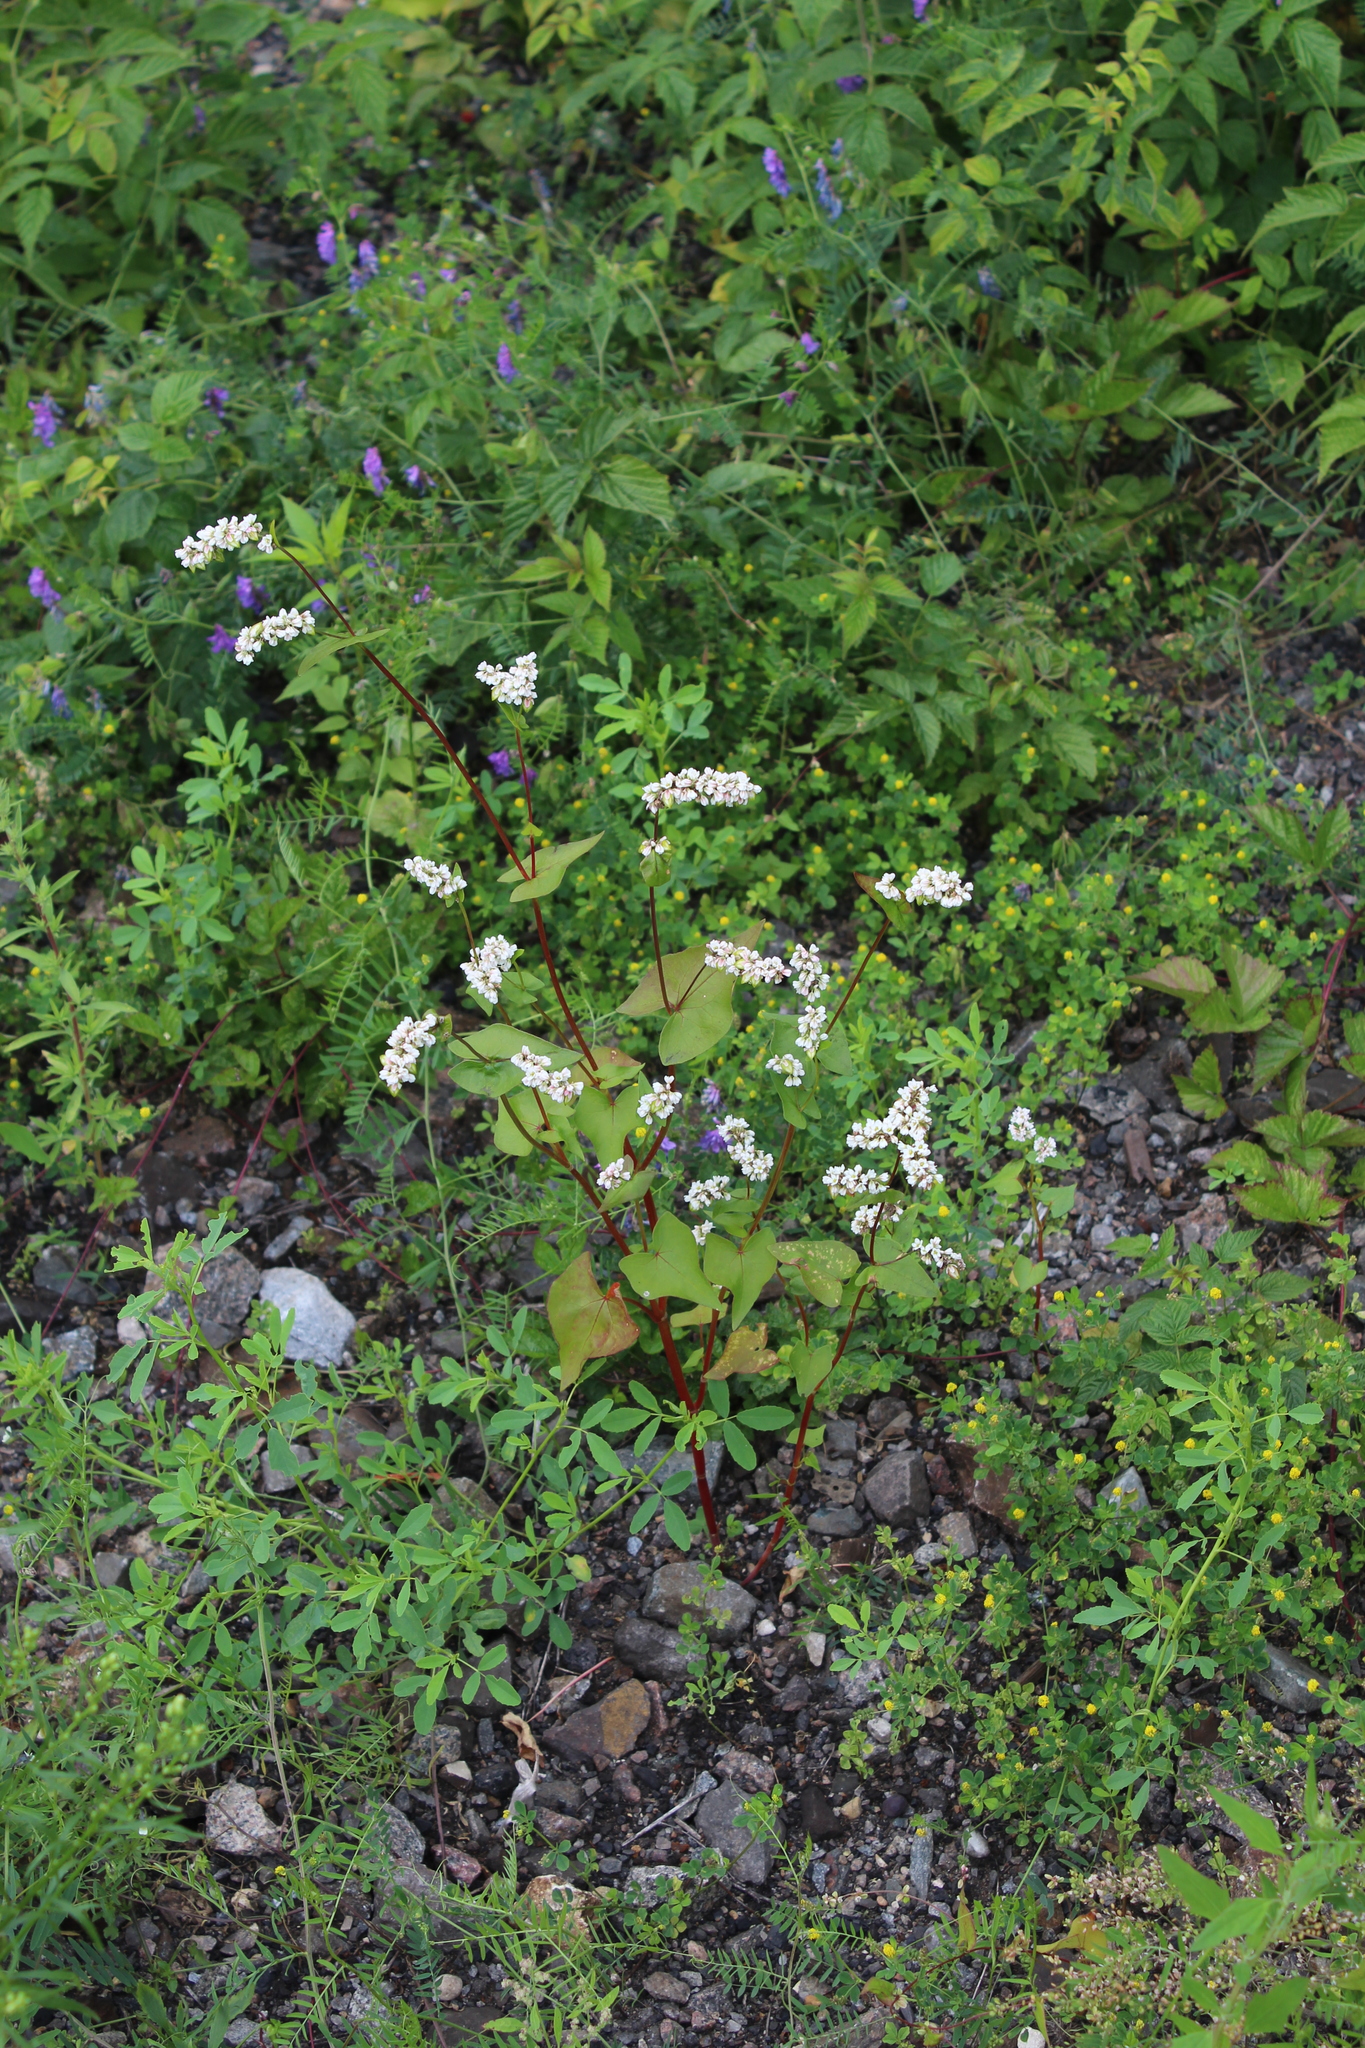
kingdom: Plantae
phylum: Tracheophyta
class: Magnoliopsida
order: Caryophyllales
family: Polygonaceae
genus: Fagopyrum
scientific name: Fagopyrum esculentum
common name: Buckwheat
